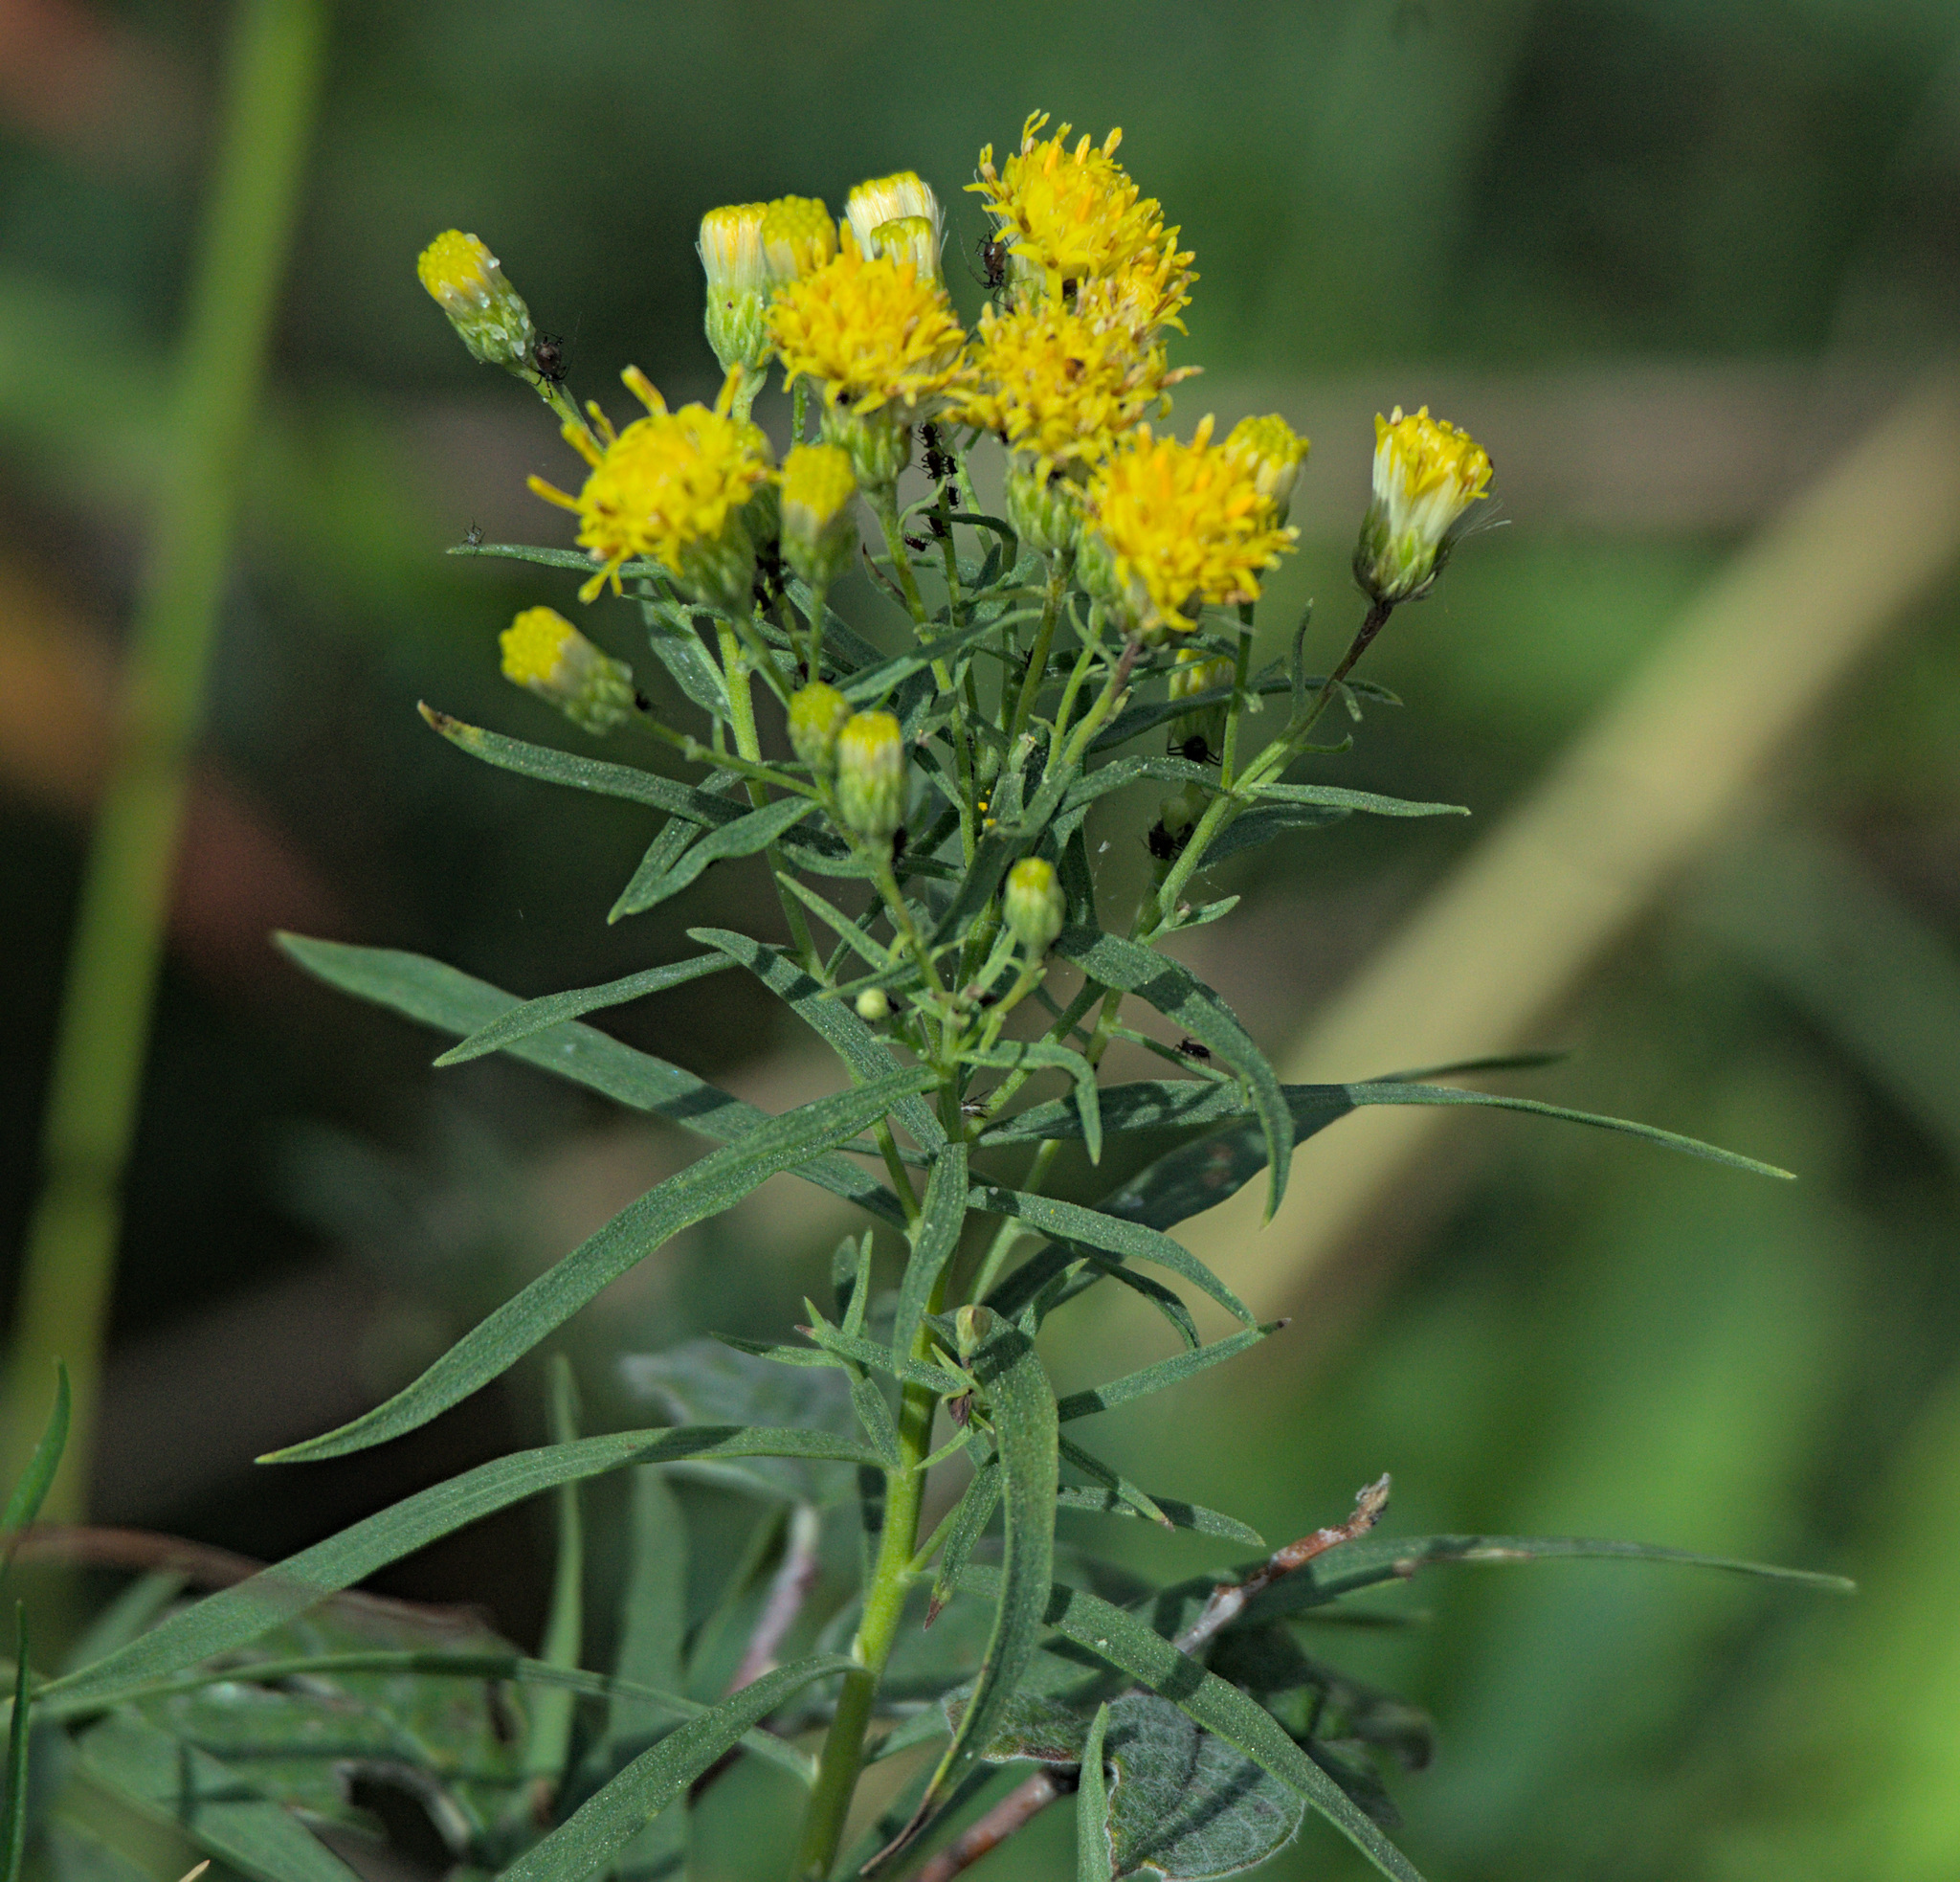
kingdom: Plantae
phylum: Tracheophyta
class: Magnoliopsida
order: Asterales
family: Asteraceae
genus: Galatella
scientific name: Galatella biflora
